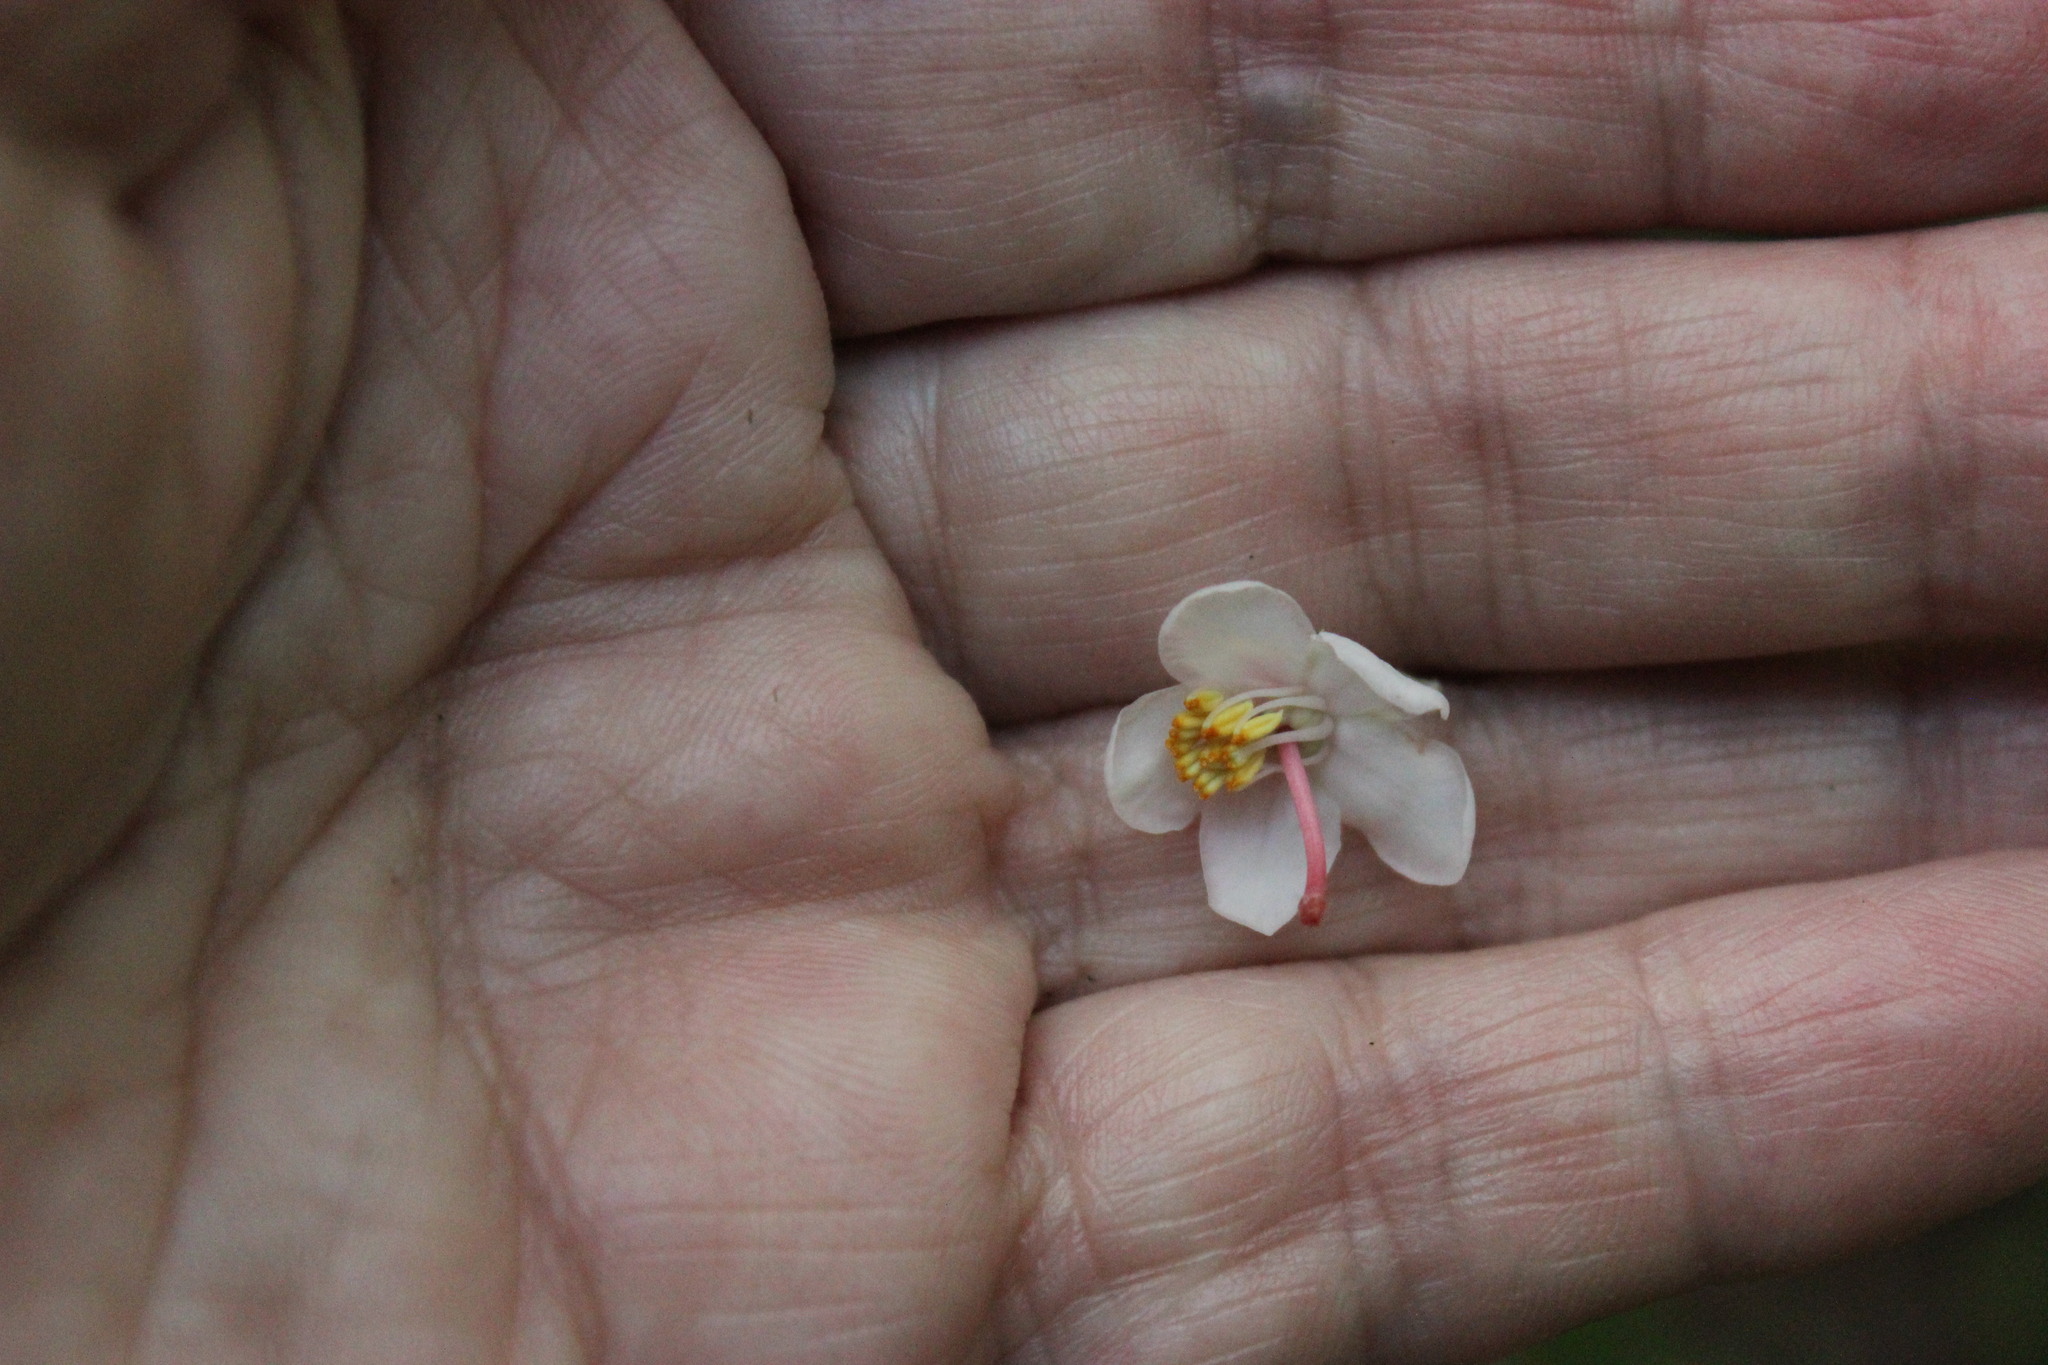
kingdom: Plantae
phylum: Tracheophyta
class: Magnoliopsida
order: Ericales
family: Ericaceae
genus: Pyrola
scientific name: Pyrola rotundifolia
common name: Round-leaved wintergreen
